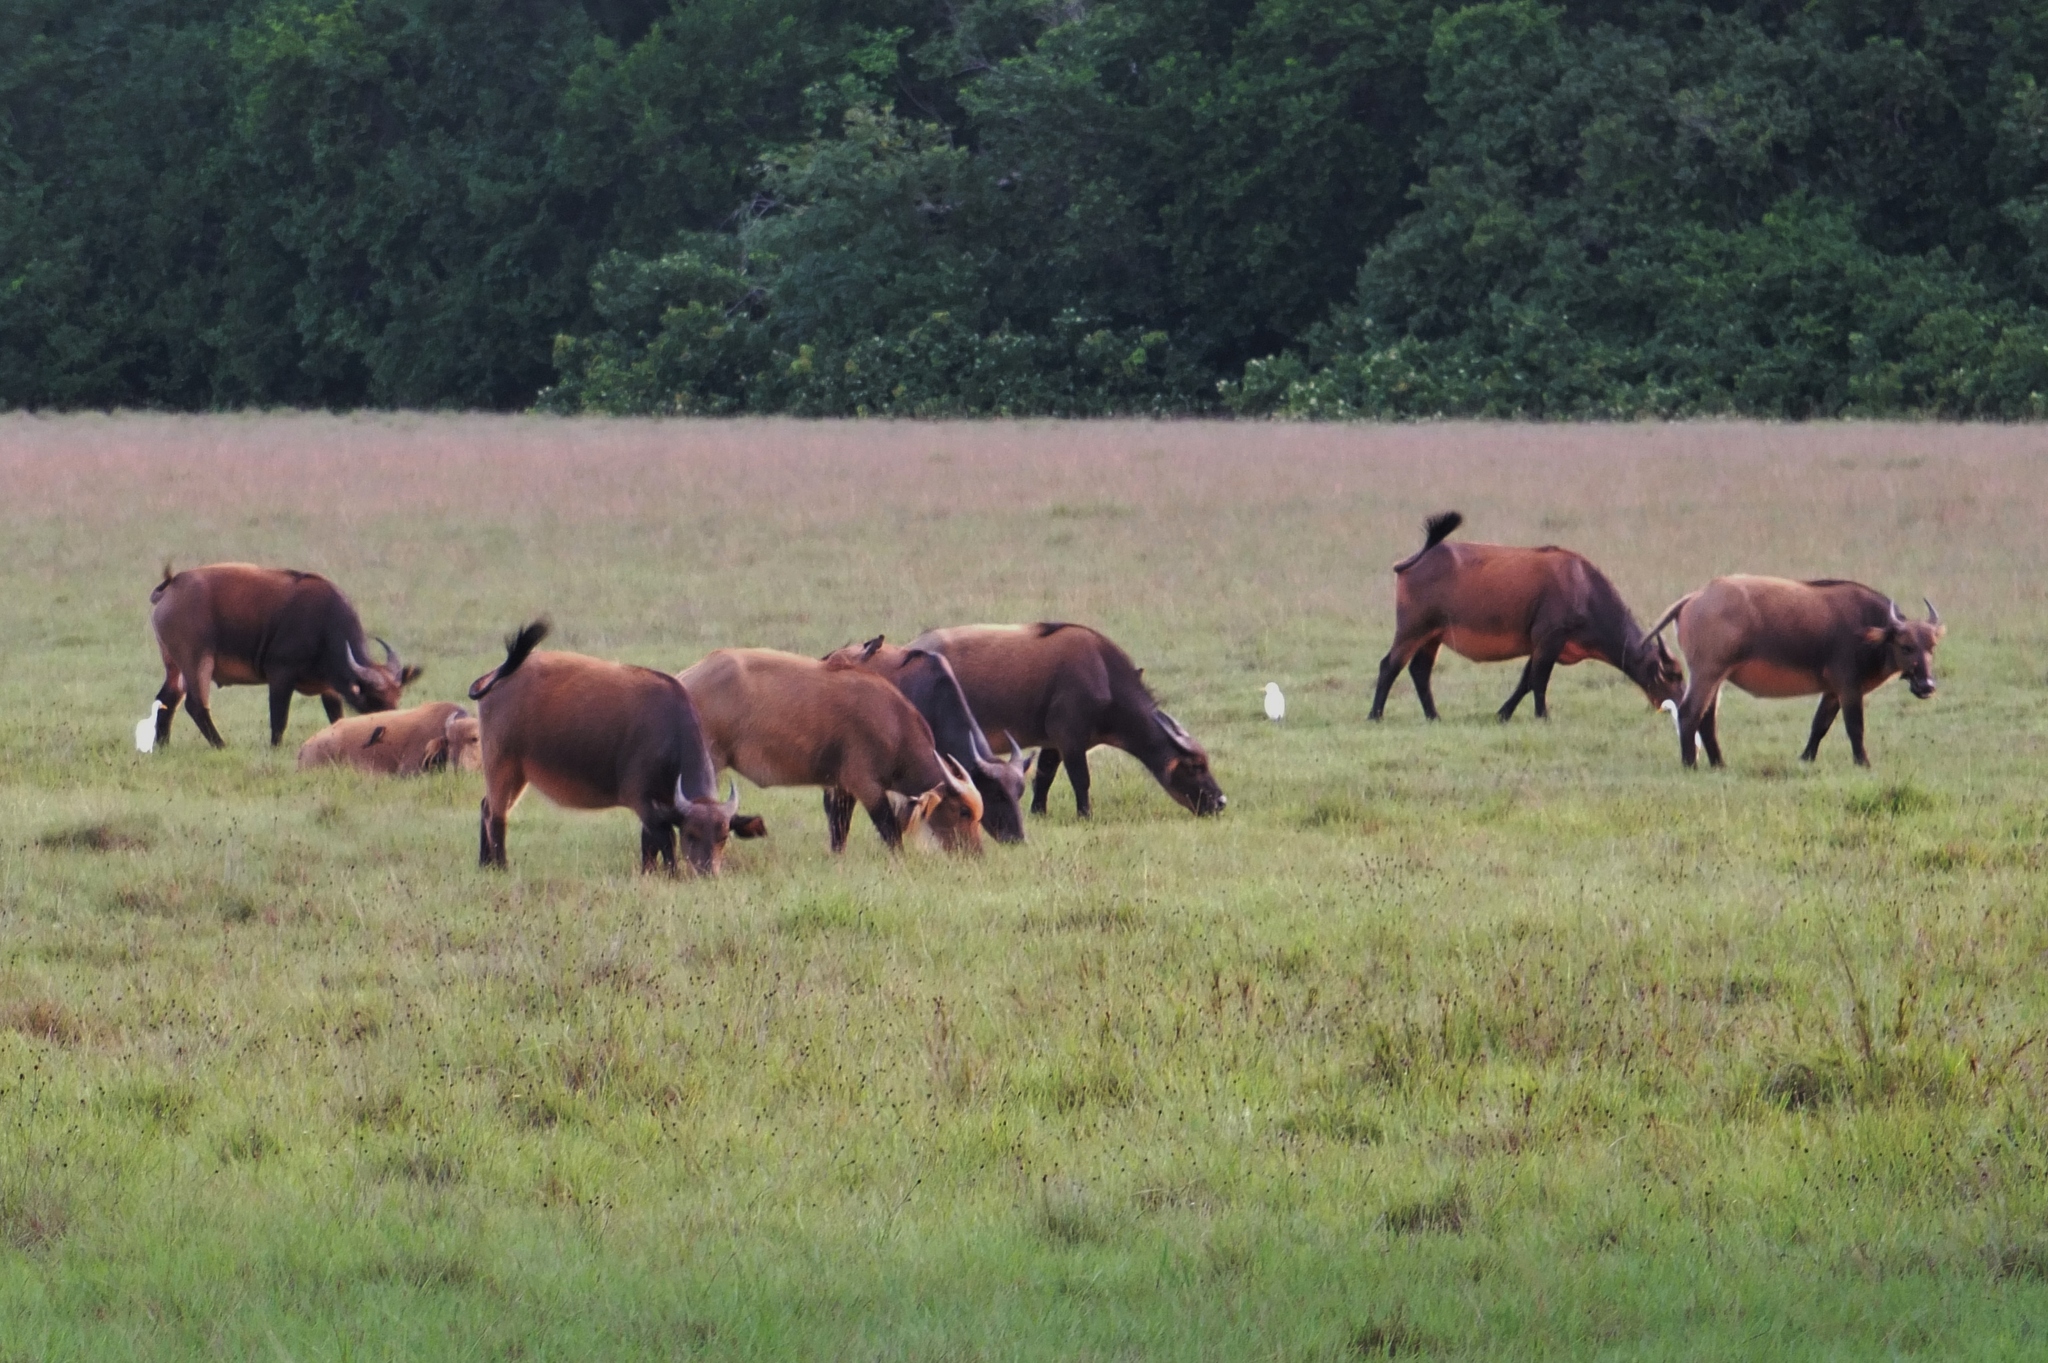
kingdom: Animalia
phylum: Chordata
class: Mammalia
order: Artiodactyla
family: Bovidae
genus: Syncerus
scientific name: Syncerus caffer
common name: African buffalo
